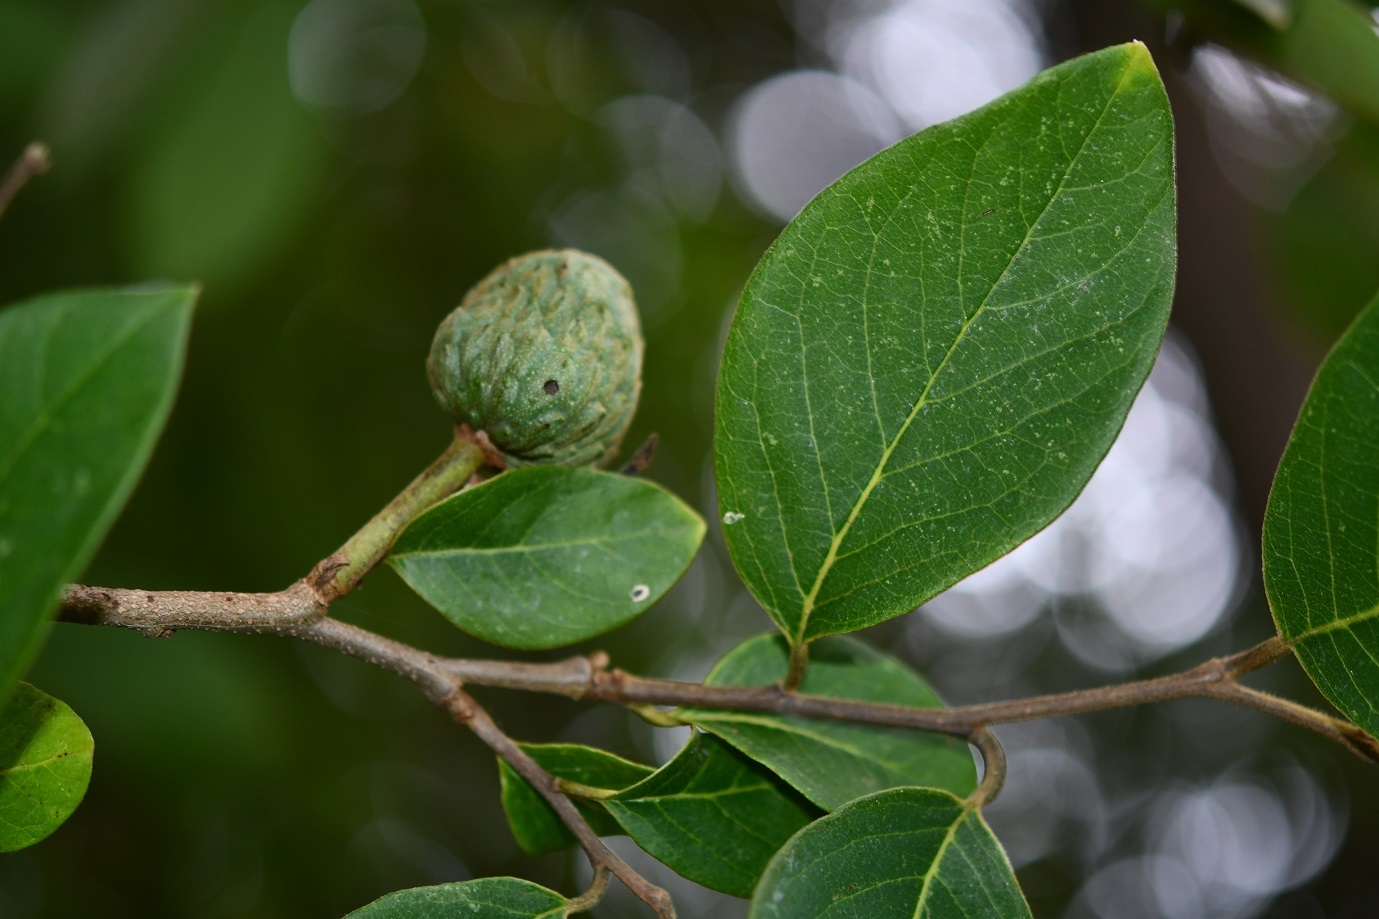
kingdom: Plantae
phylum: Tracheophyta
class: Magnoliopsida
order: Magnoliales
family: Annonaceae
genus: Annona
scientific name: Annona cherimola
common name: Cherimoya
